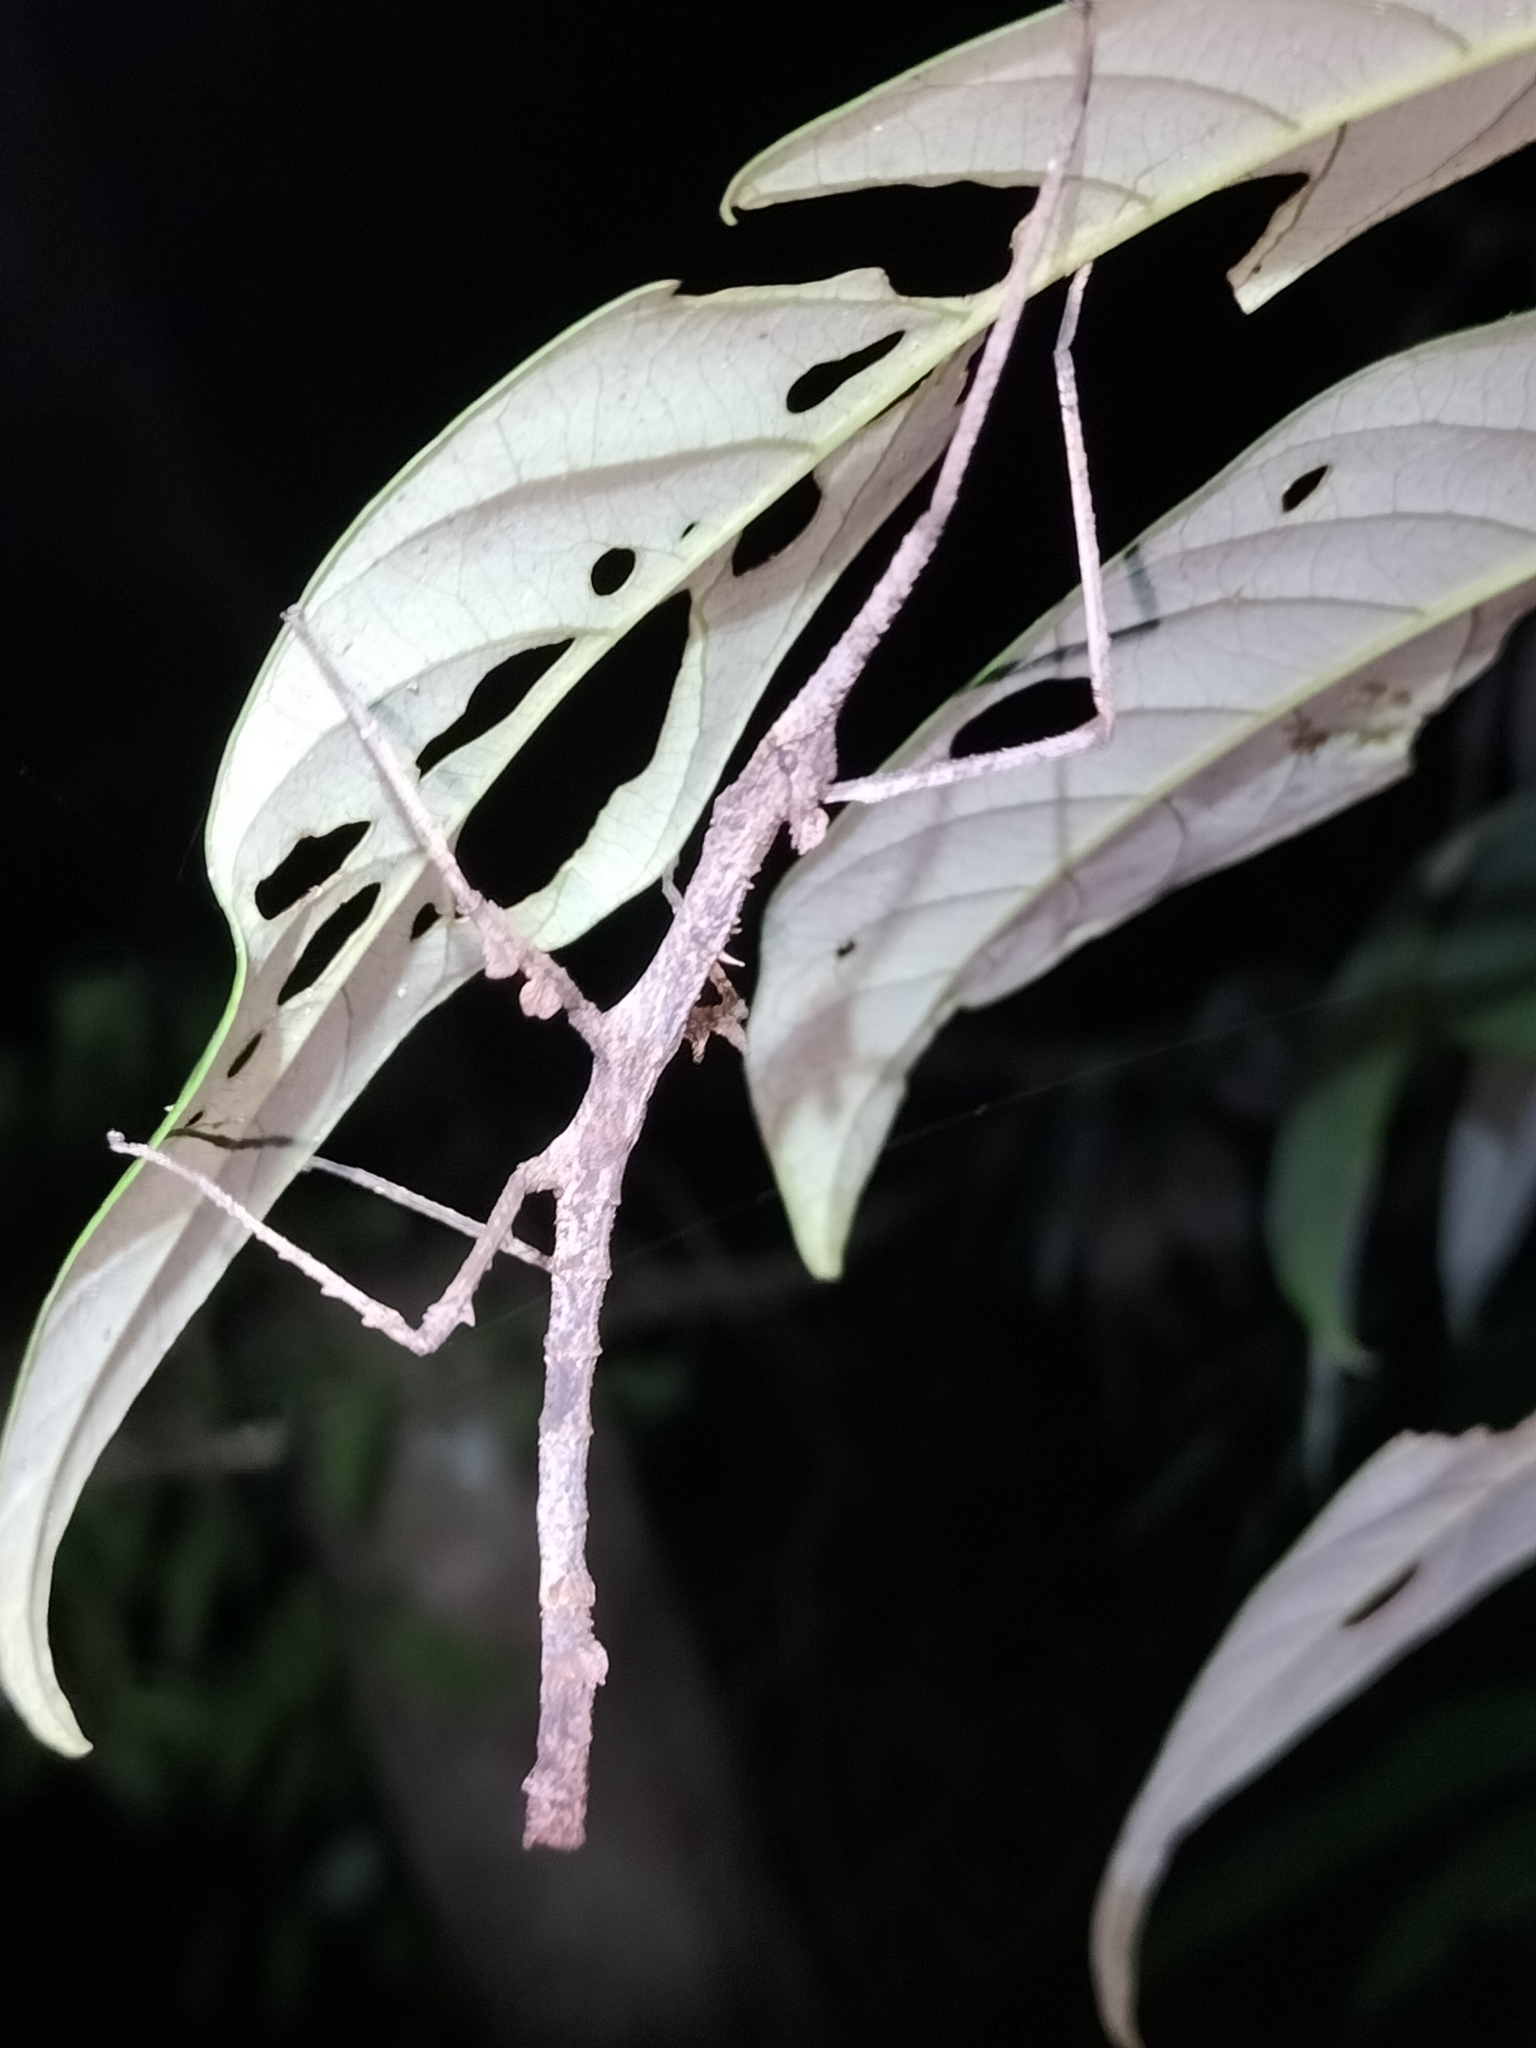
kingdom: Animalia
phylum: Arthropoda
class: Insecta
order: Phasmida
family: Phasmatidae
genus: Onchestus
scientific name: Onchestus rentzi
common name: Rentz's stick-insect
